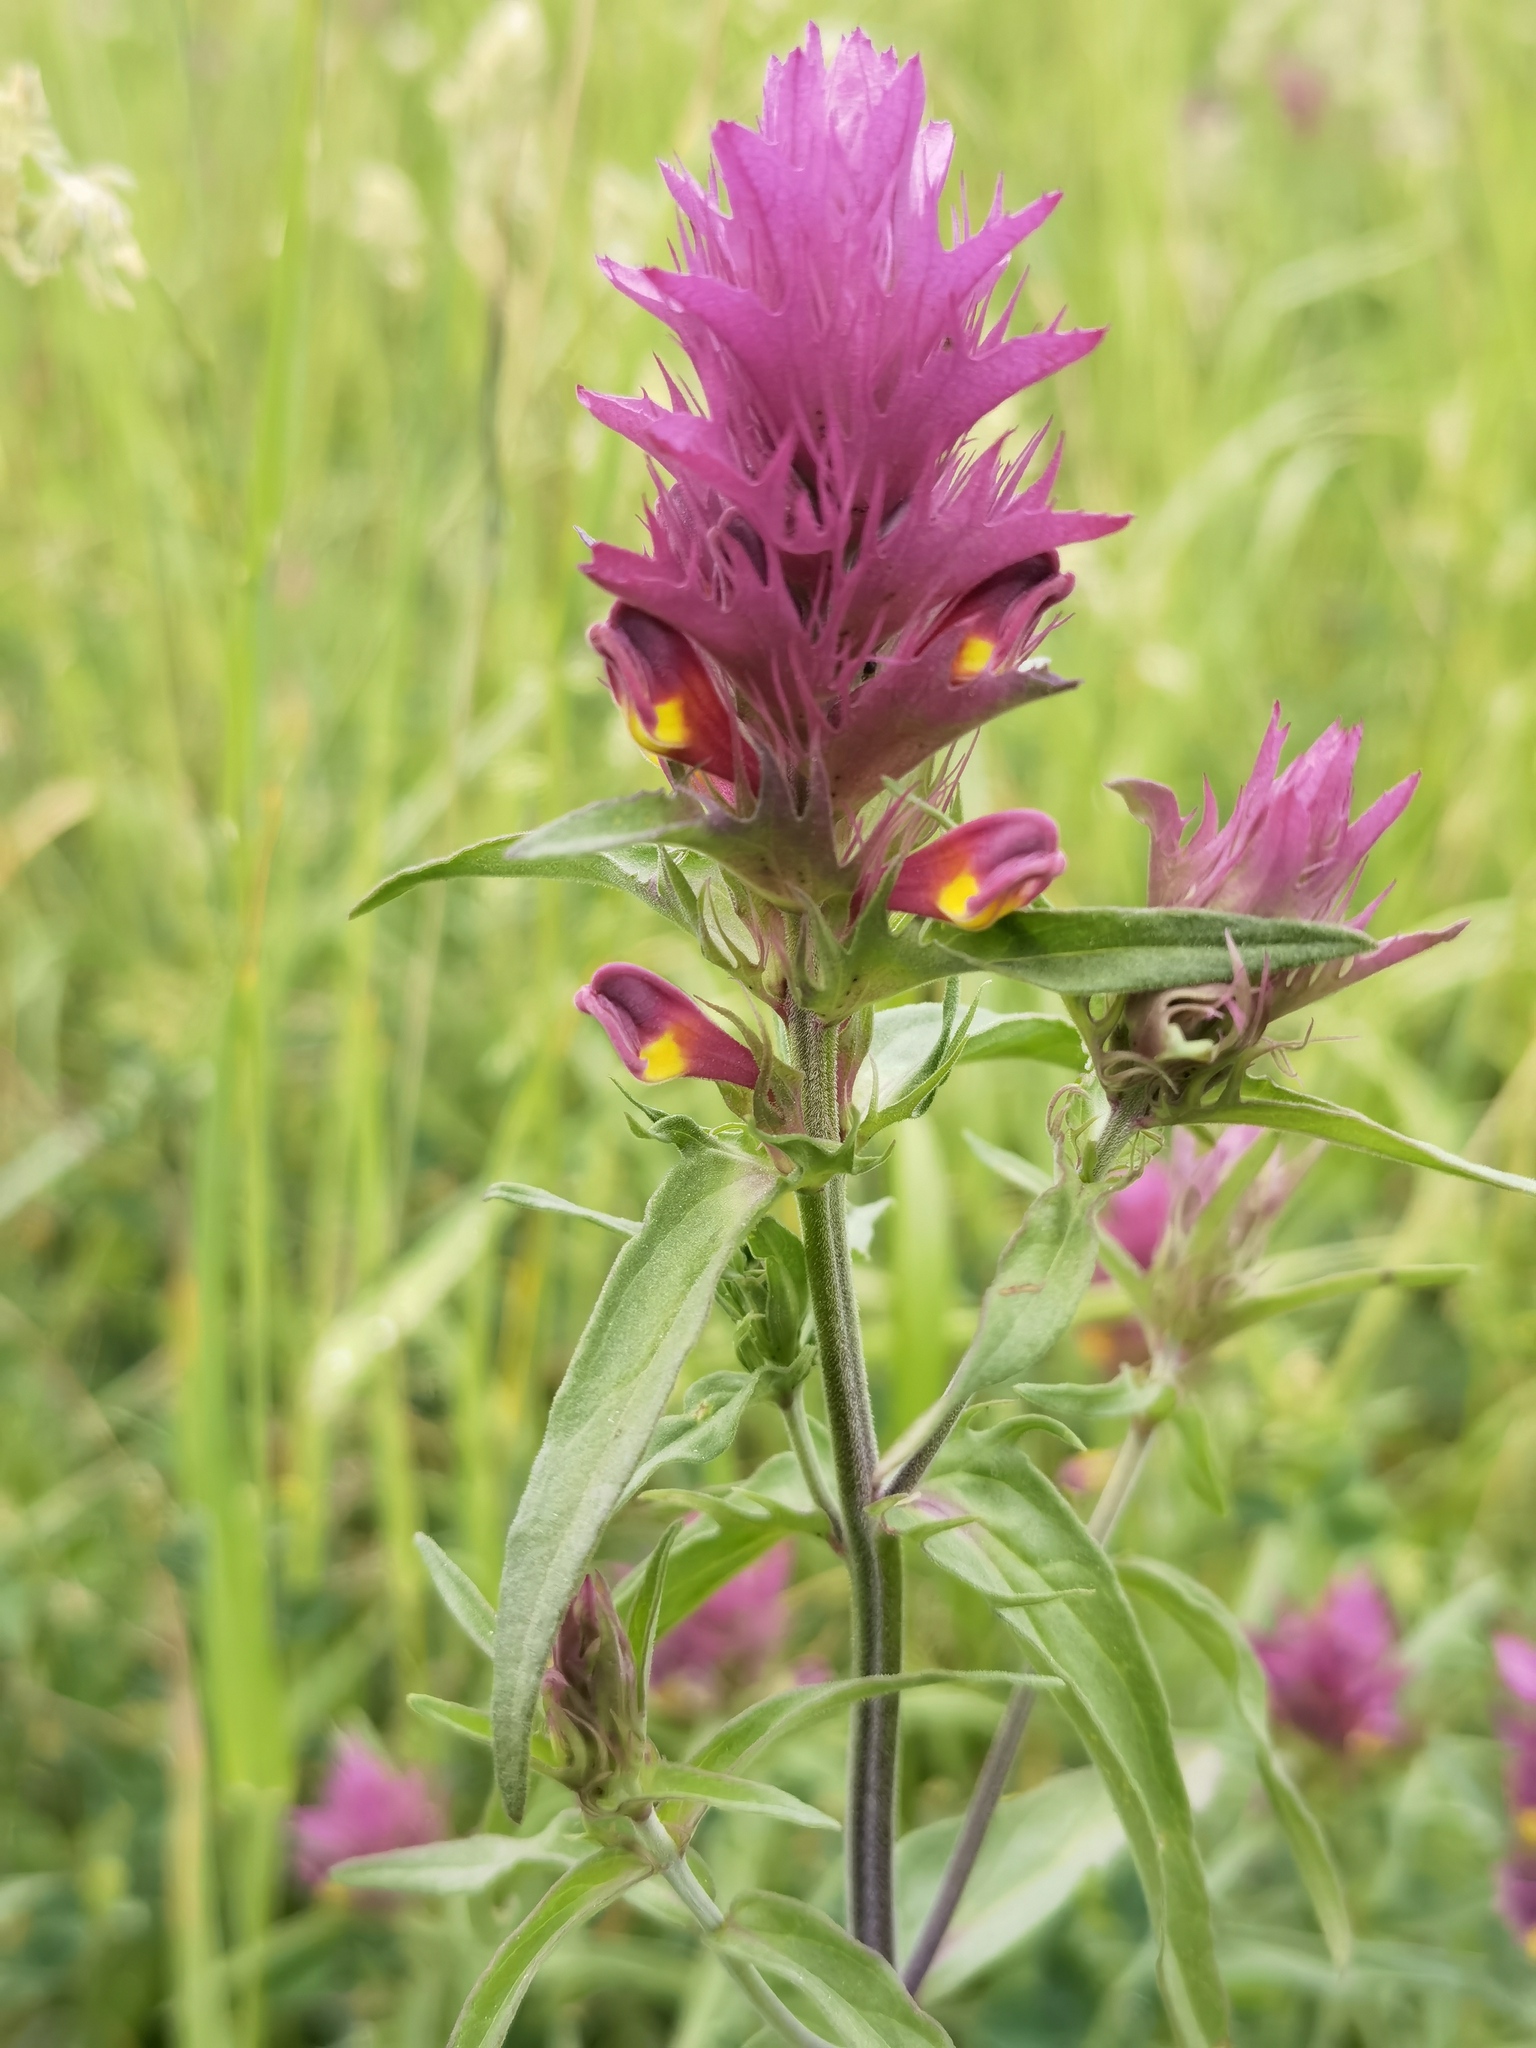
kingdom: Plantae
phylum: Tracheophyta
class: Magnoliopsida
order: Lamiales
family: Orobanchaceae
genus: Melampyrum
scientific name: Melampyrum arvense
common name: Field cow-wheat
